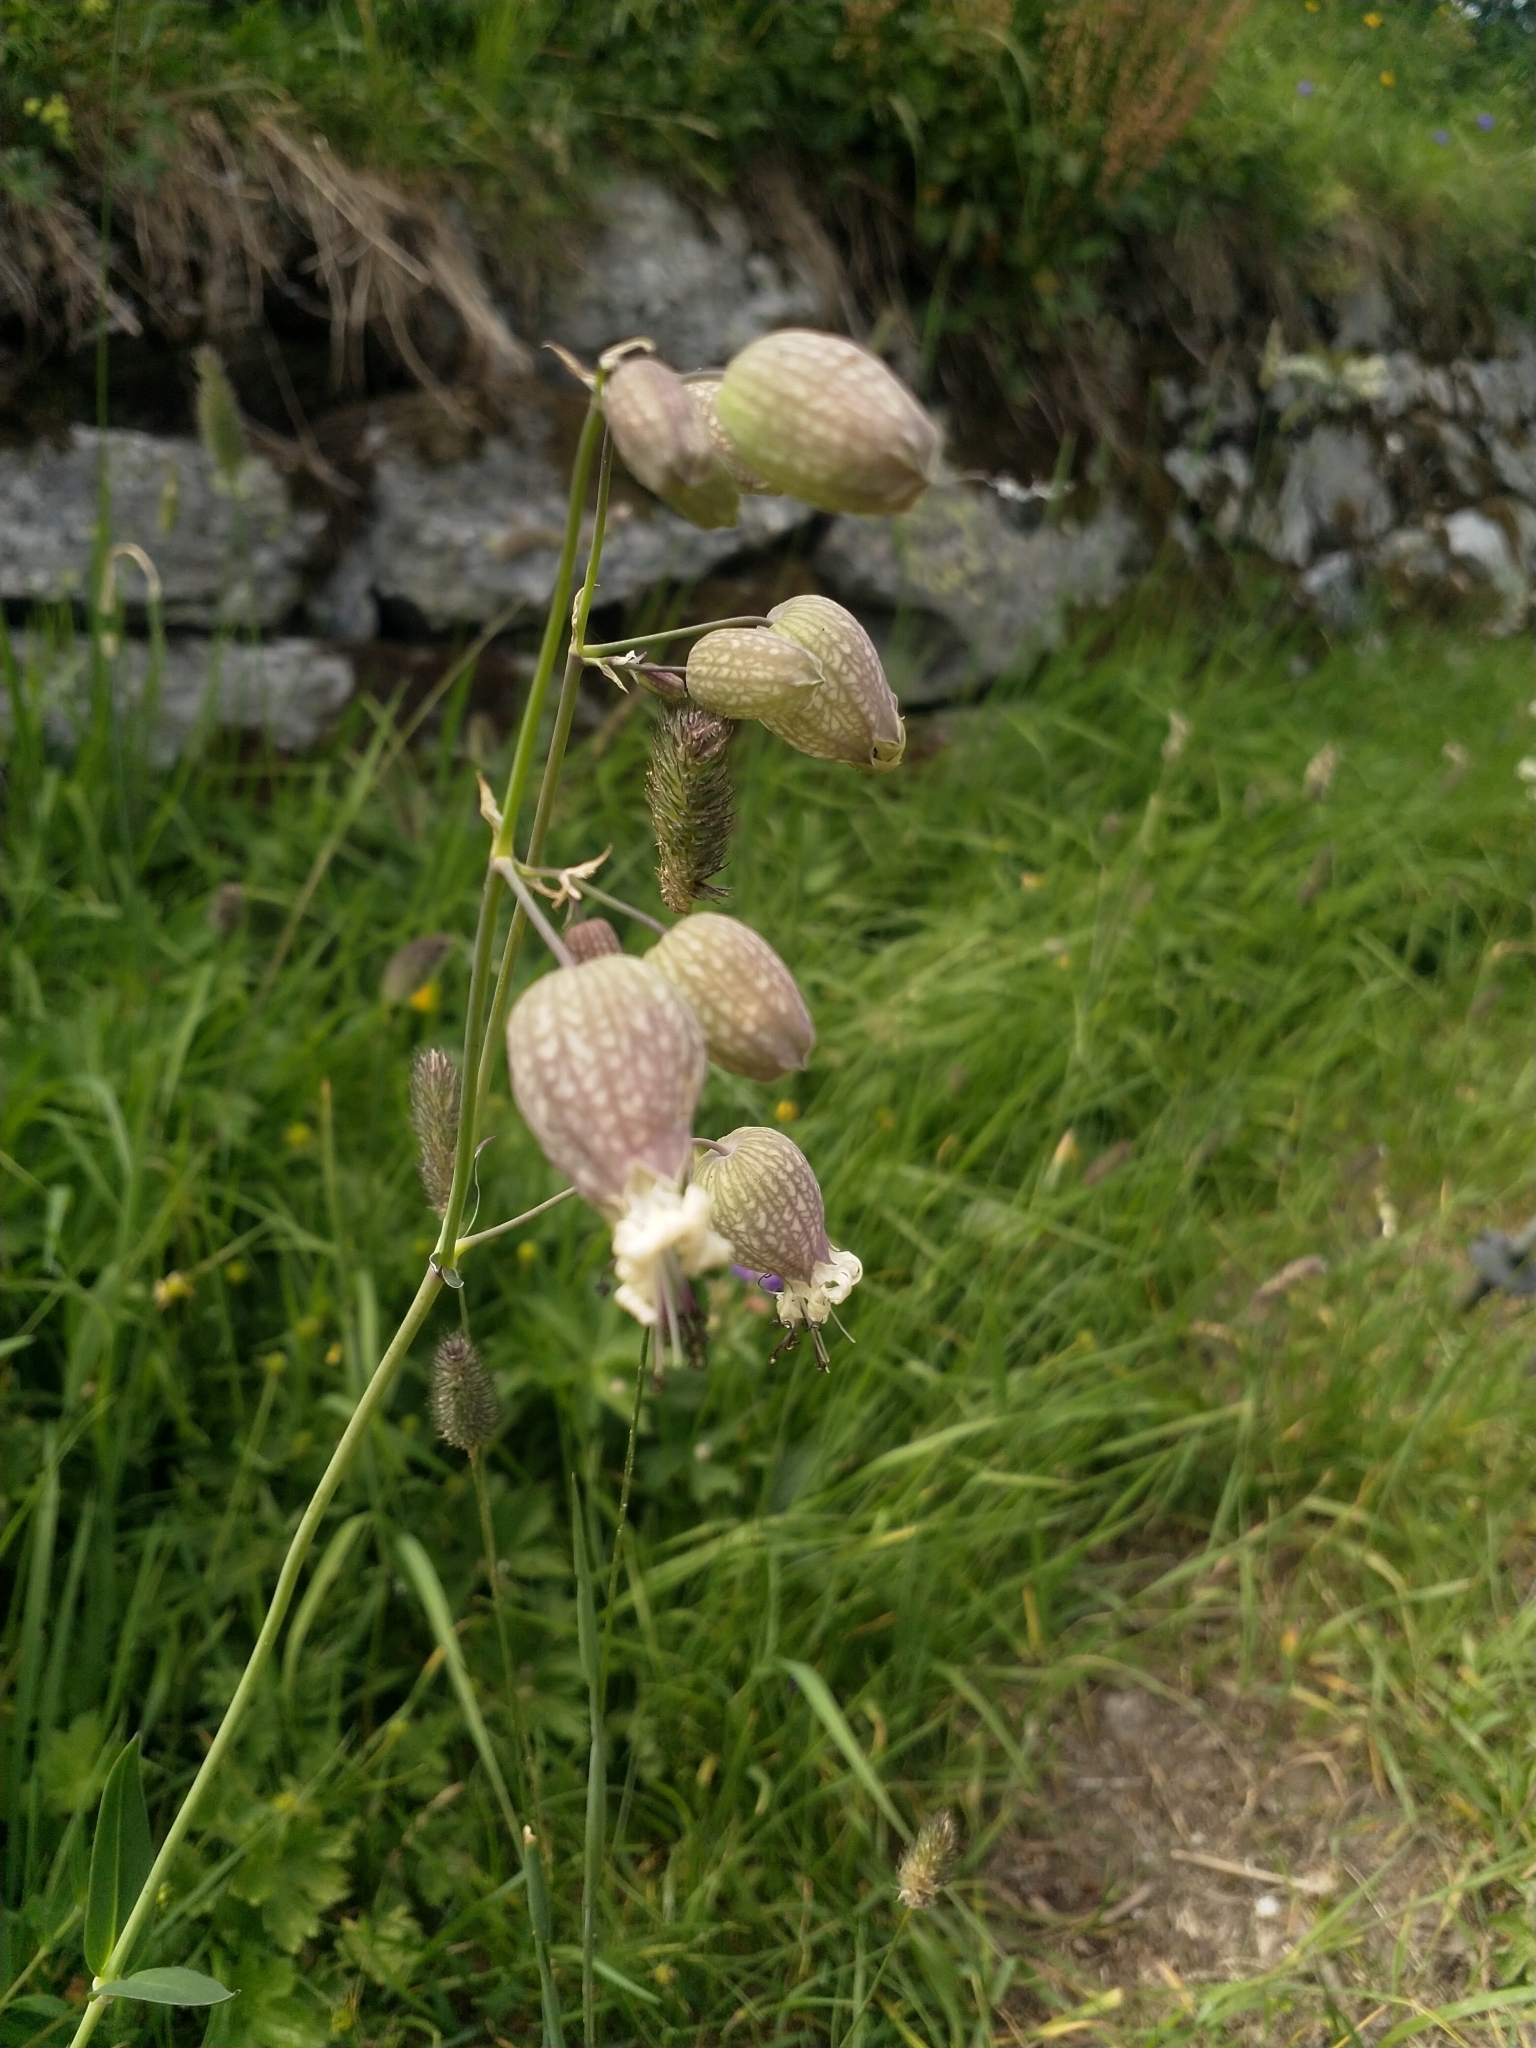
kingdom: Plantae
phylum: Tracheophyta
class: Magnoliopsida
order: Caryophyllales
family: Caryophyllaceae
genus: Silene
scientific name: Silene vulgaris
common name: Bladder campion
